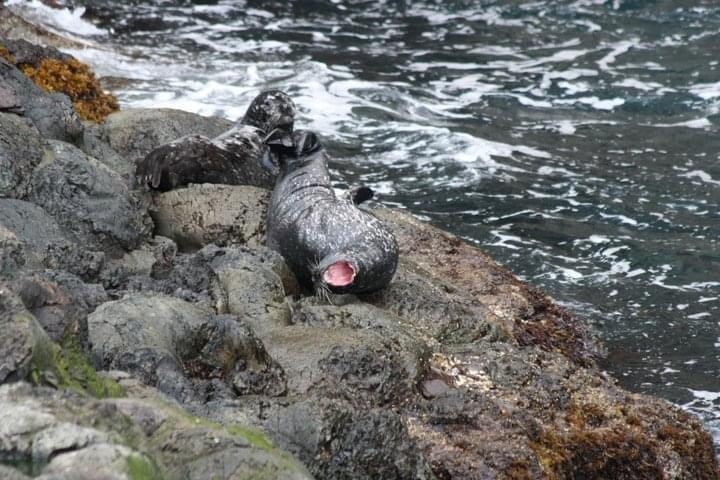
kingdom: Animalia
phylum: Chordata
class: Mammalia
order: Carnivora
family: Phocidae
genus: Phoca
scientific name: Phoca vitulina
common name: Harbor seal
